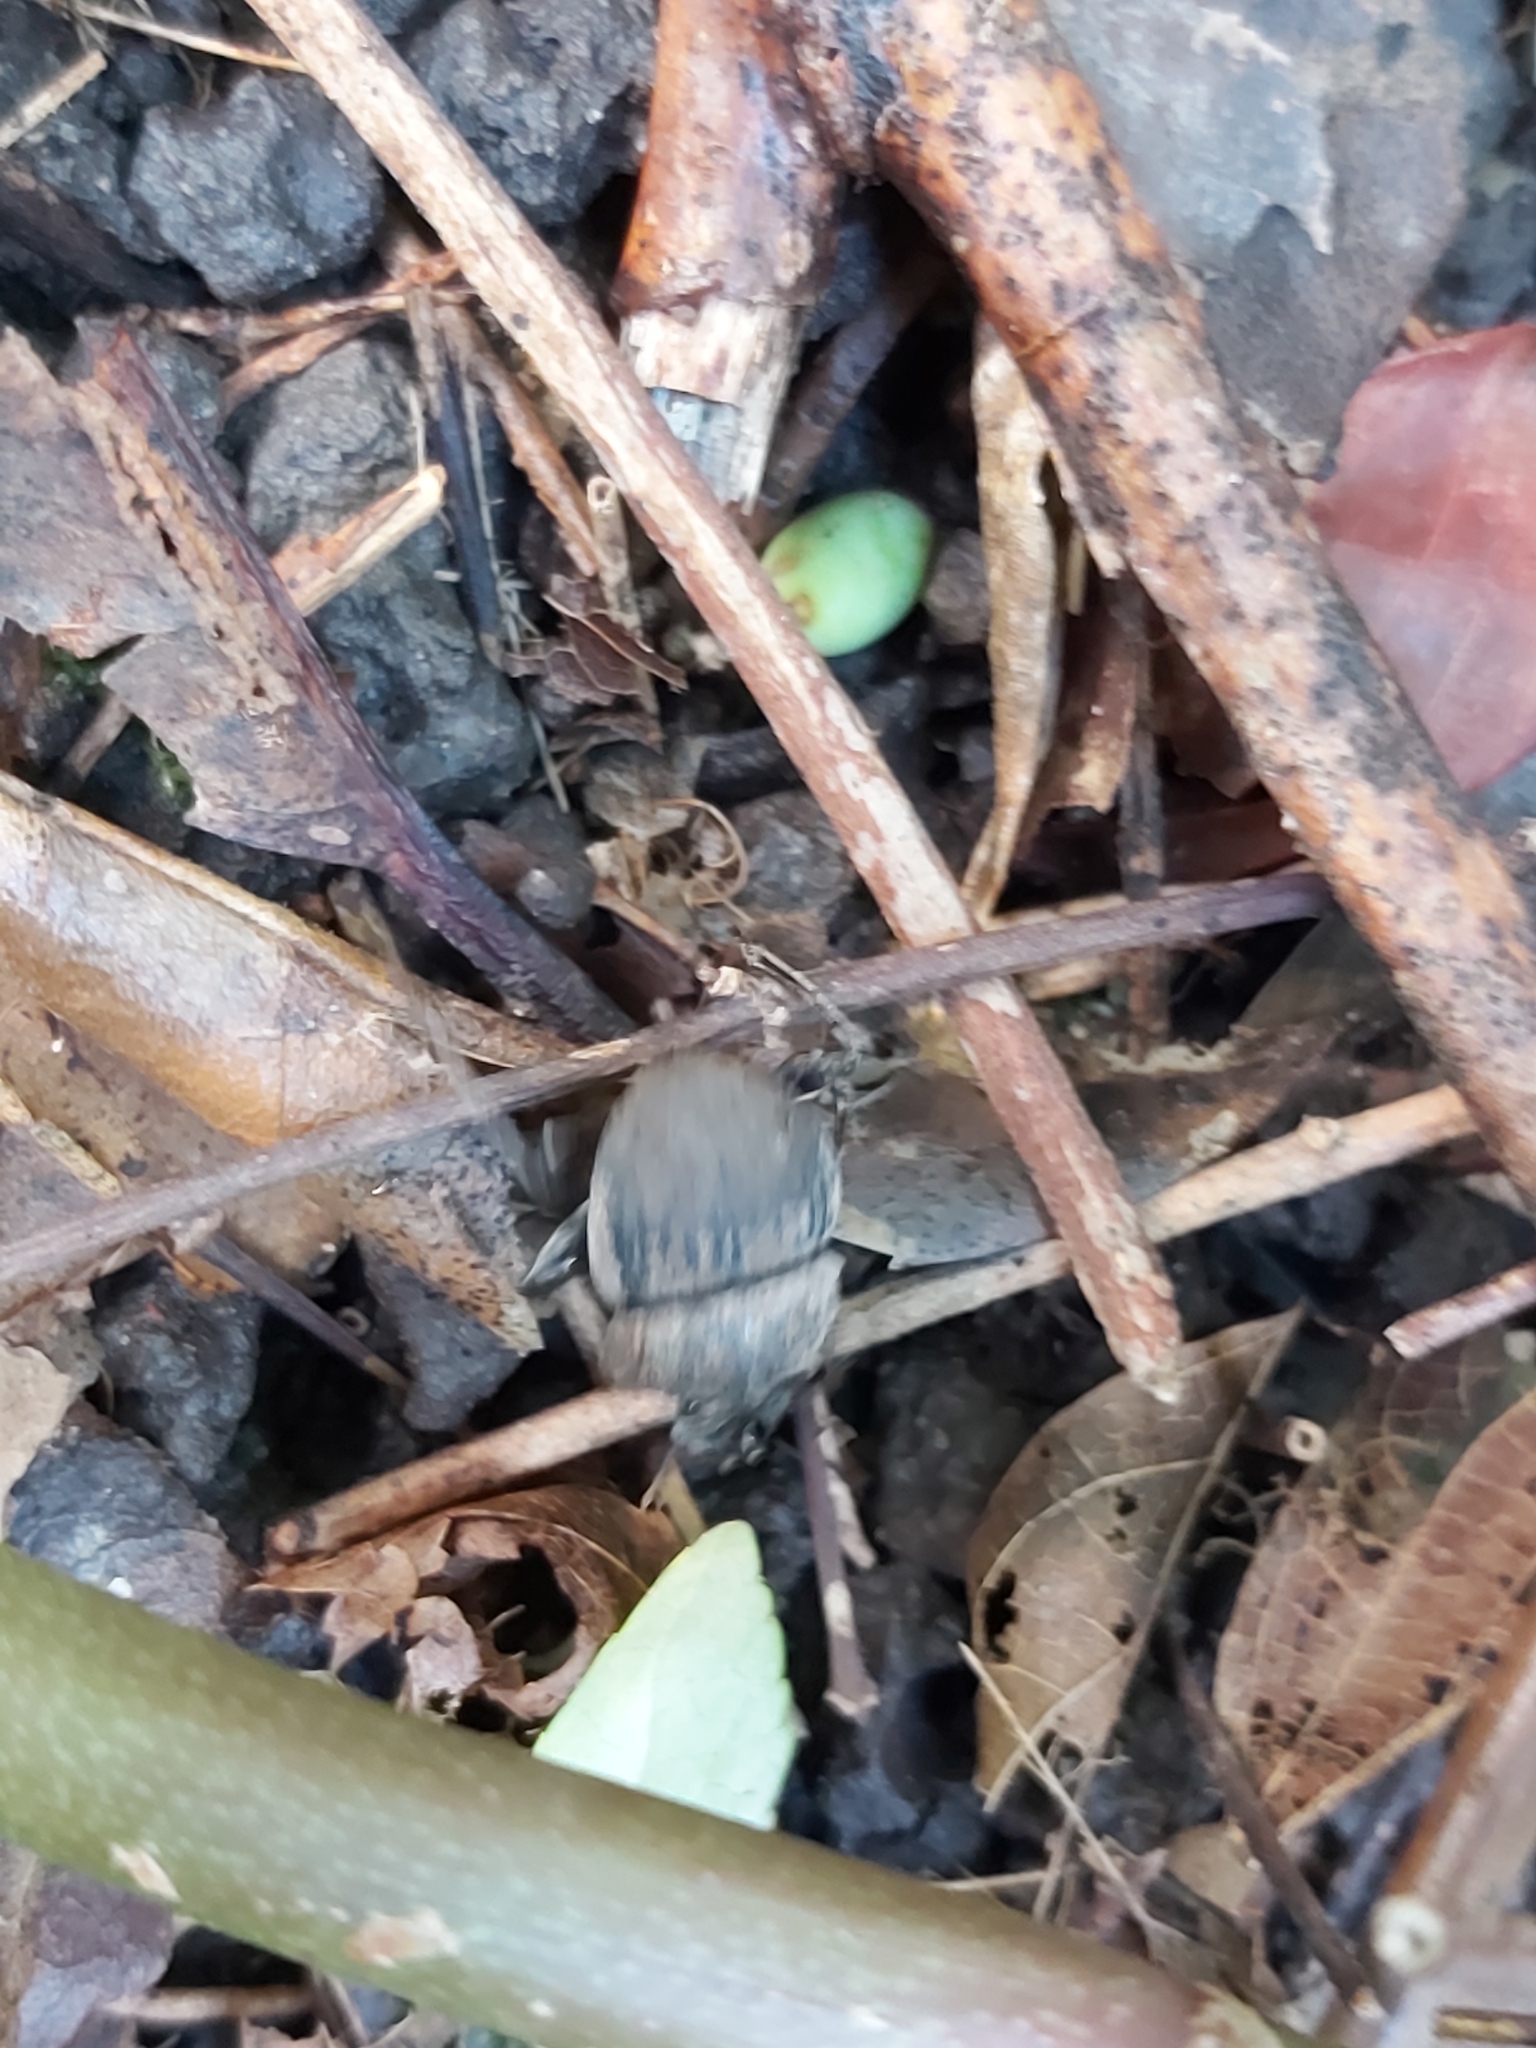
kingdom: Animalia
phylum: Arthropoda
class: Insecta
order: Coleoptera
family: Scarabaeidae
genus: Cephalodesmius
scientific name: Cephalodesmius armiger
